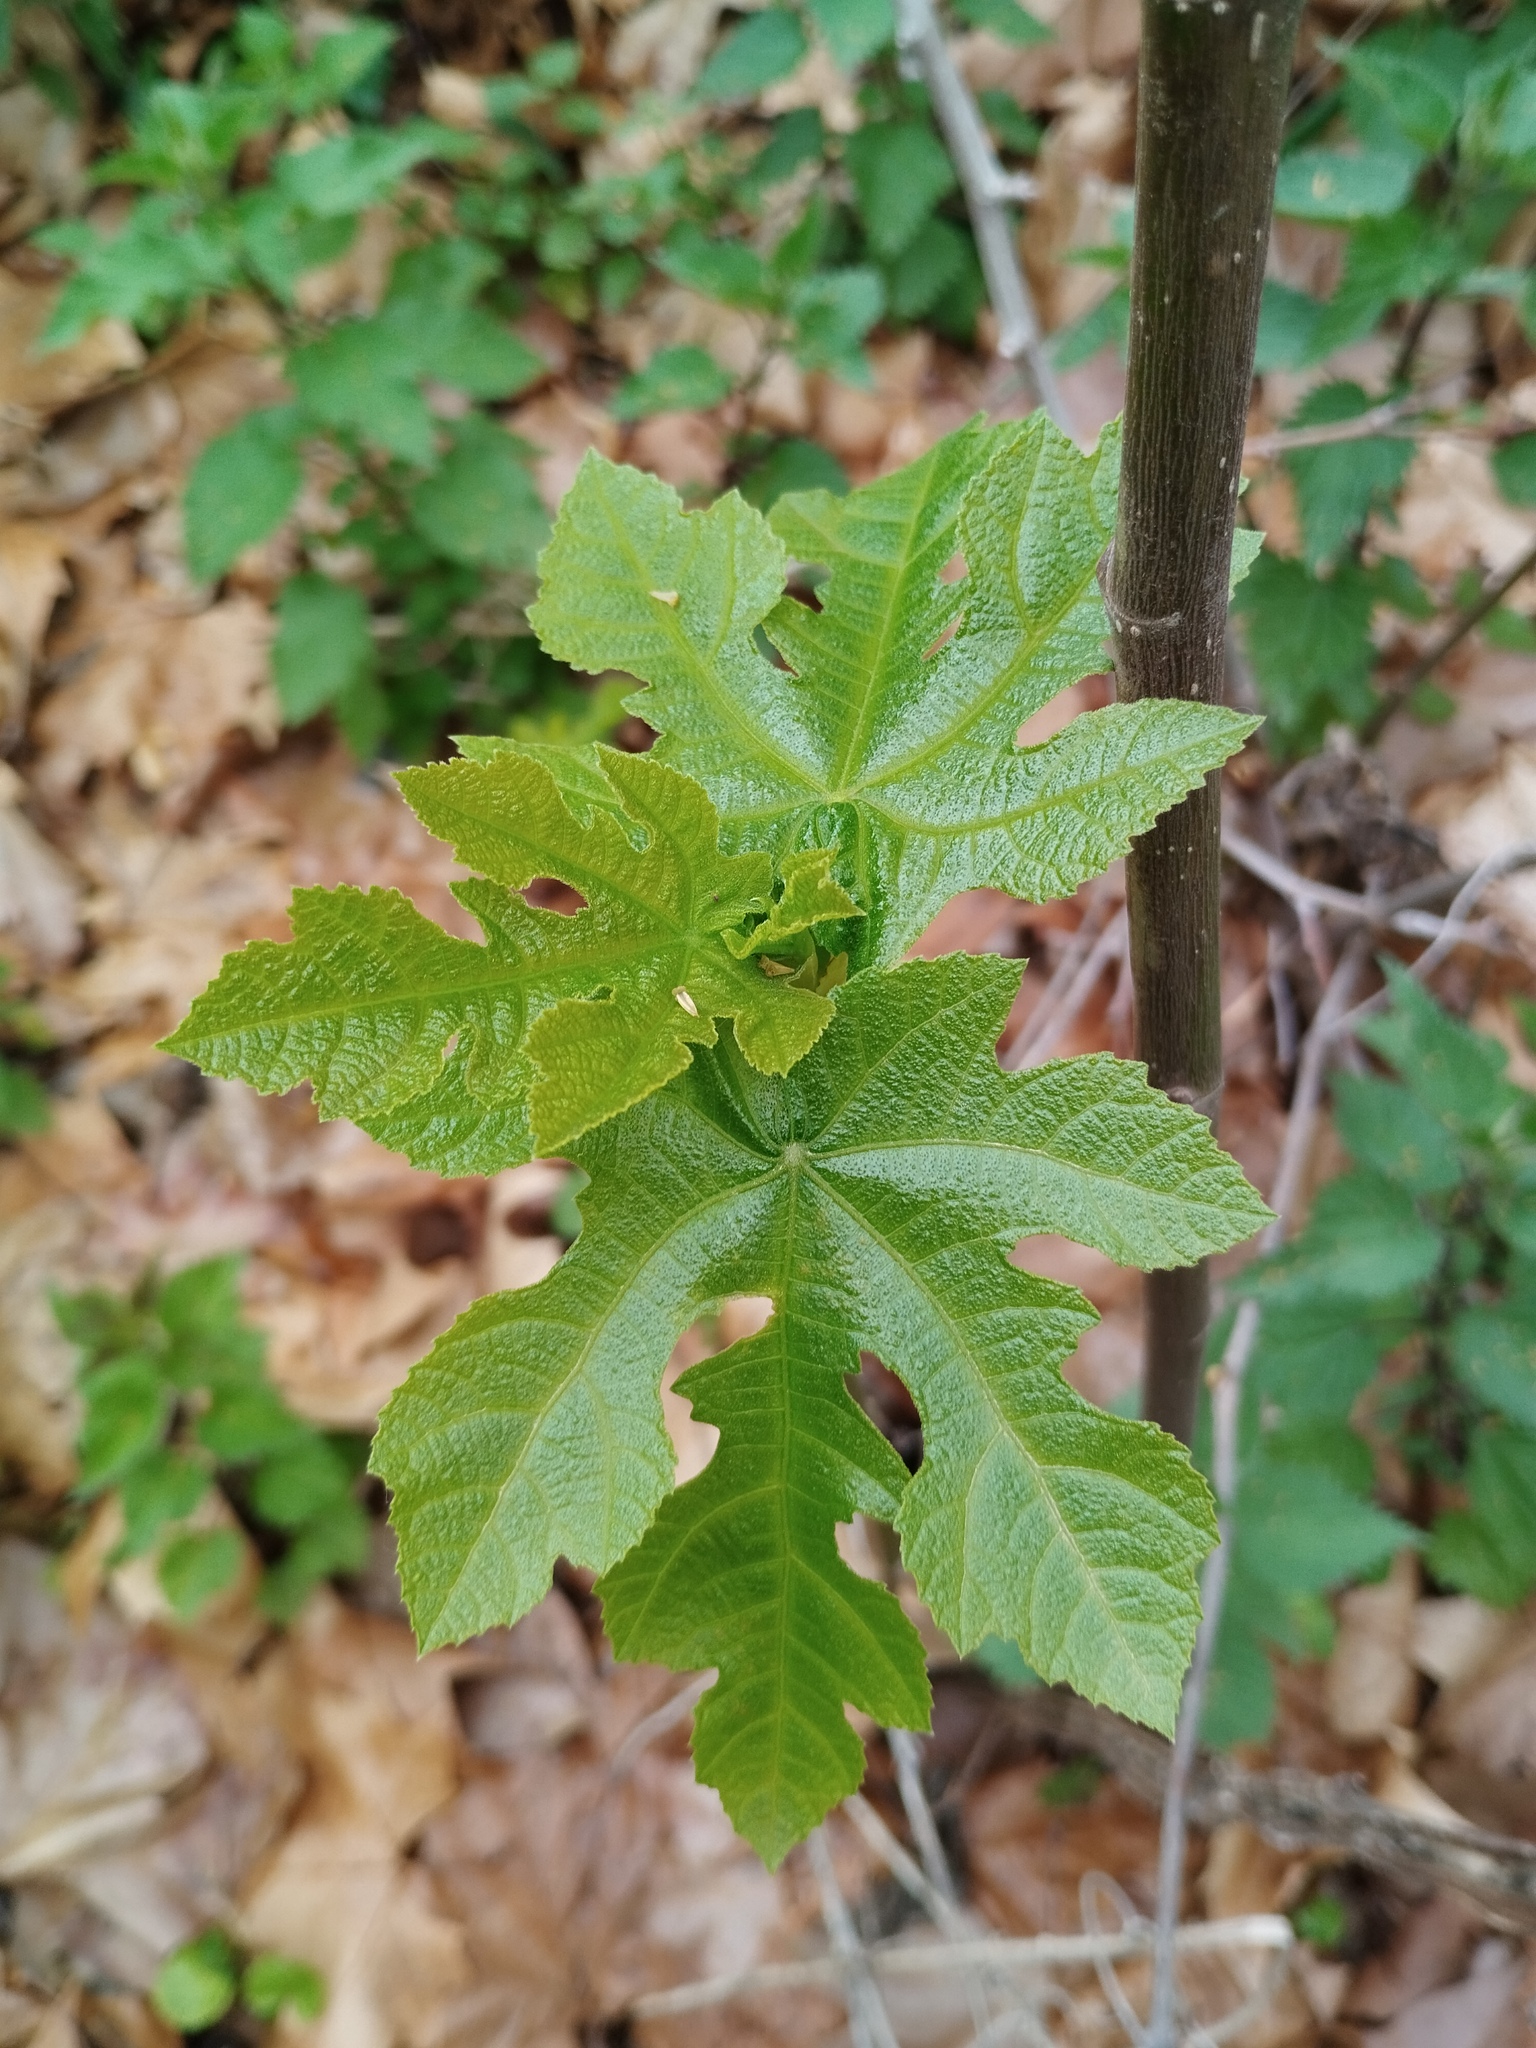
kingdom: Plantae
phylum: Tracheophyta
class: Magnoliopsida
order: Rosales
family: Moraceae
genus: Ficus
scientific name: Ficus carica
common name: Fig
